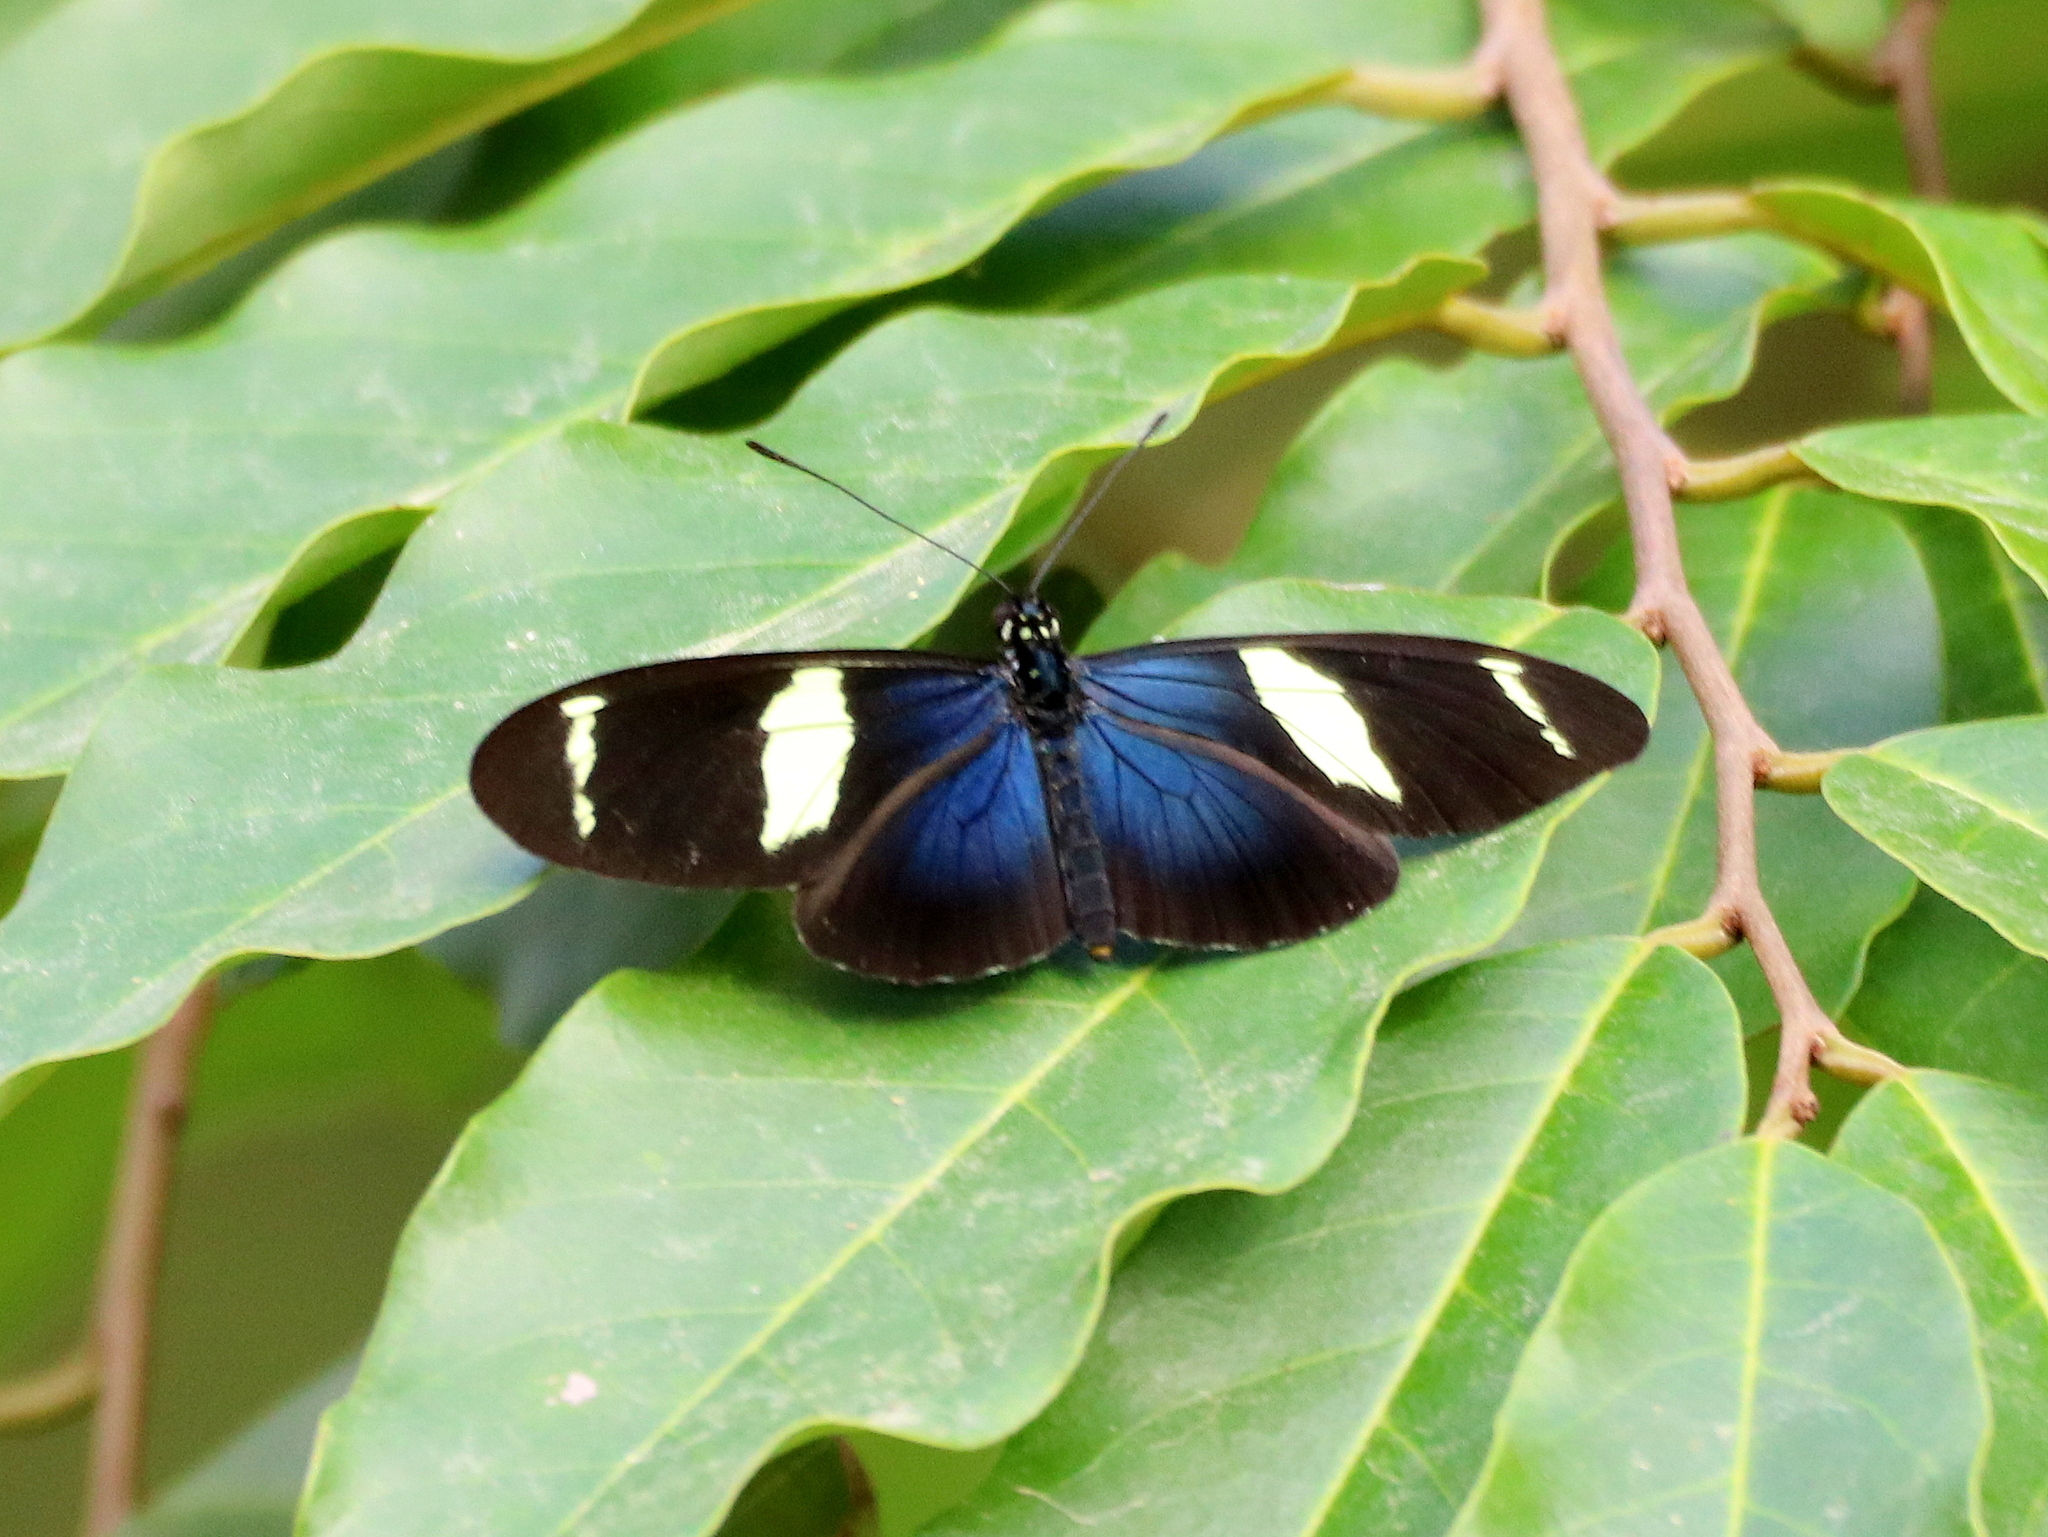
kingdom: Animalia
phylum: Arthropoda
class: Insecta
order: Lepidoptera
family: Nymphalidae
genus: Heliconius
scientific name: Heliconius sara
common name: Sara longwing
